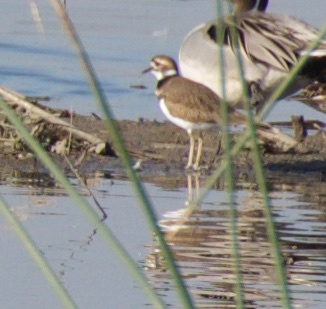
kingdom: Animalia
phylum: Chordata
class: Aves
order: Charadriiformes
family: Charadriidae
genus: Charadrius
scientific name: Charadrius vociferus
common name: Killdeer
